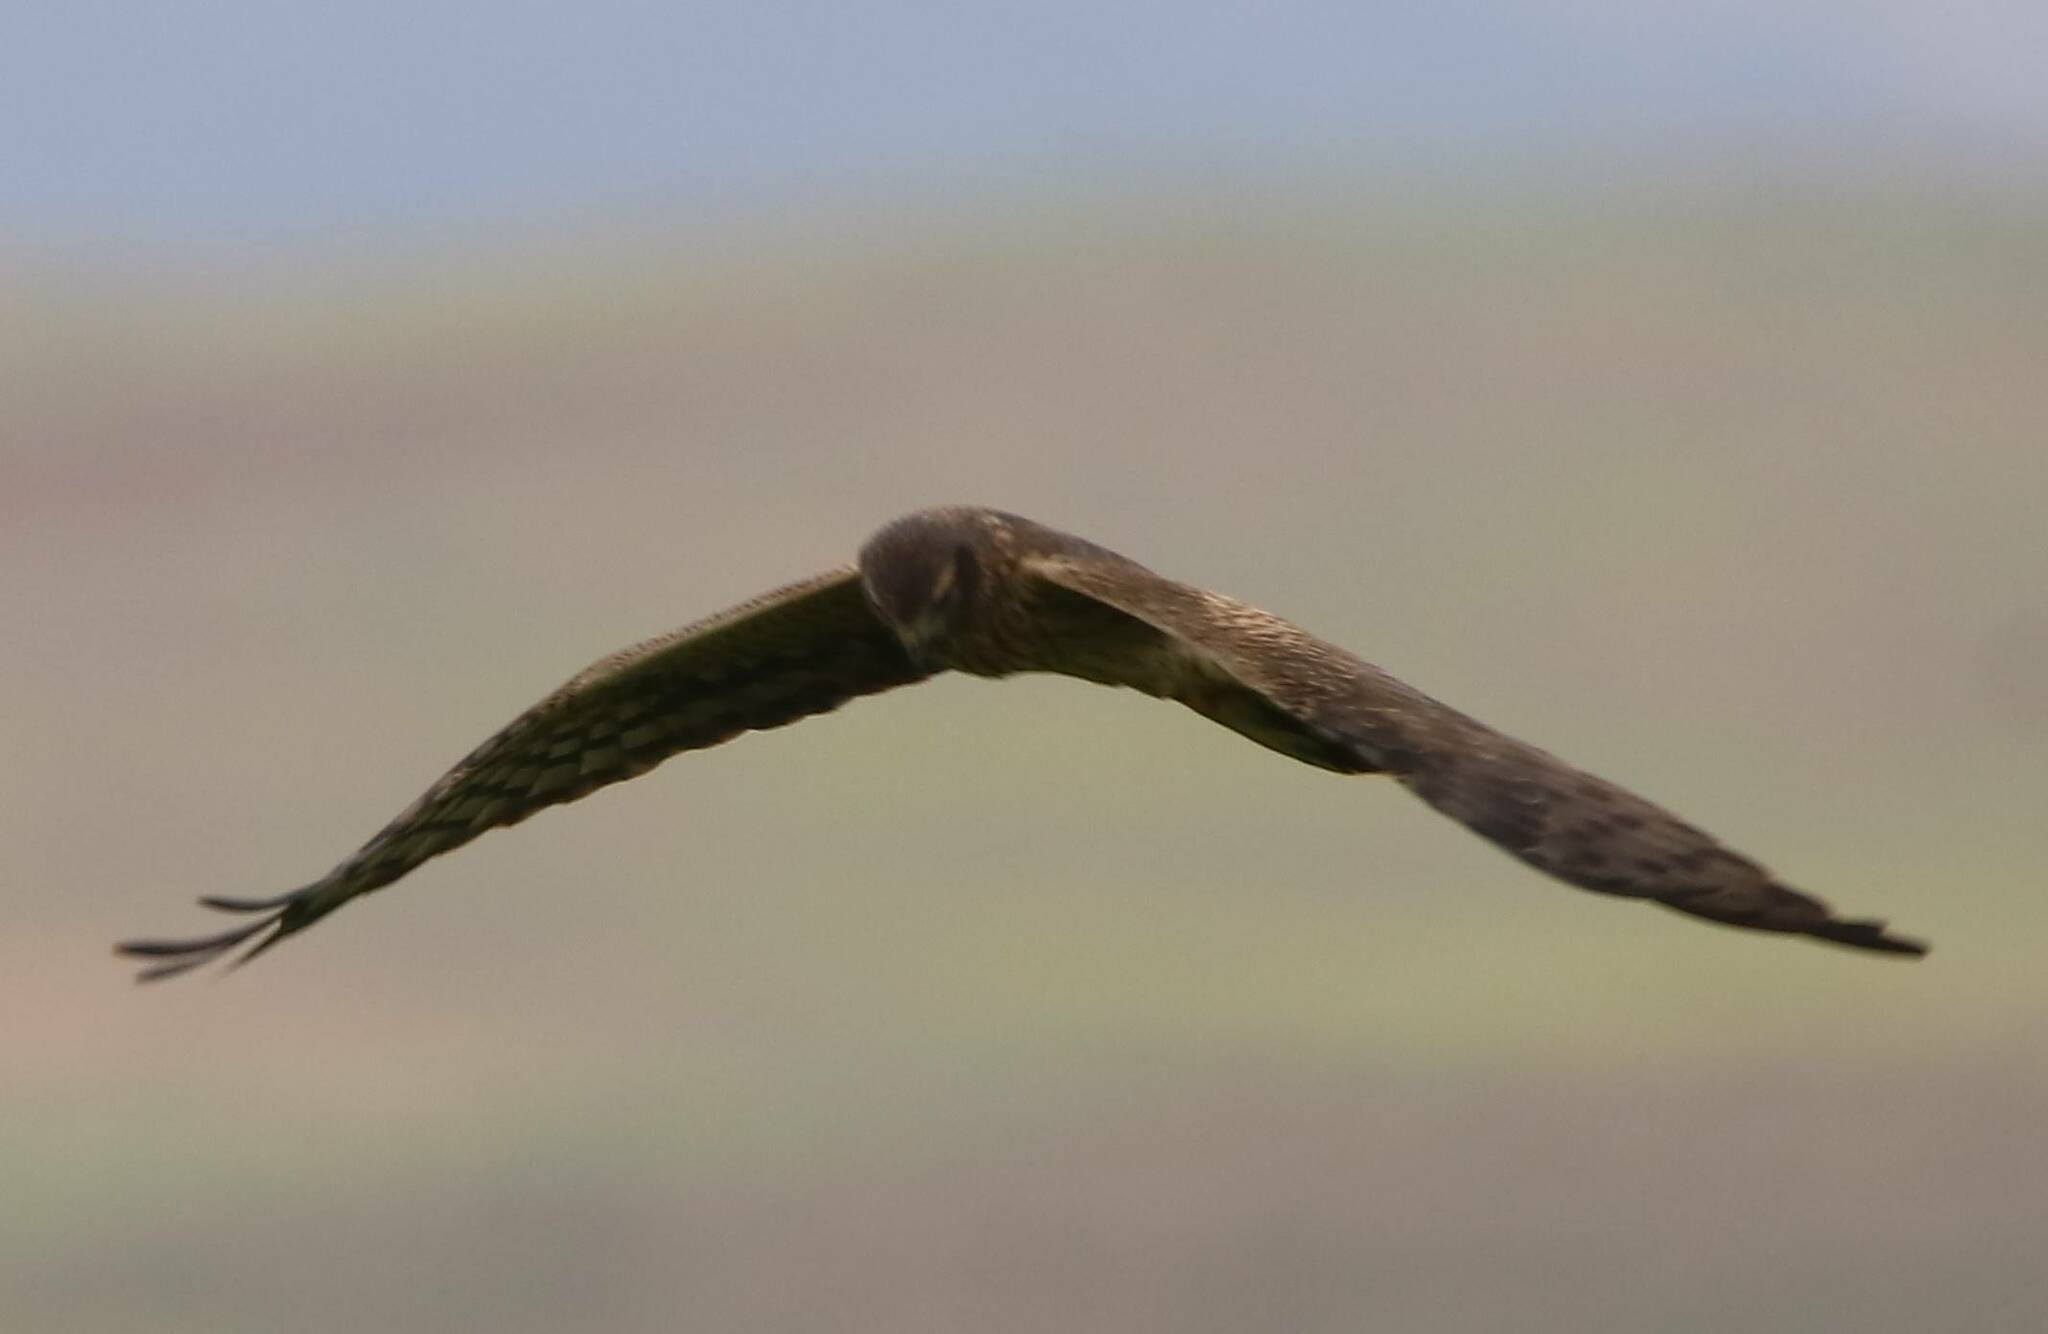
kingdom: Animalia
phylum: Chordata
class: Aves
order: Accipitriformes
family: Accipitridae
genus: Circus
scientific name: Circus pygargus
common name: Montagu's harrier
